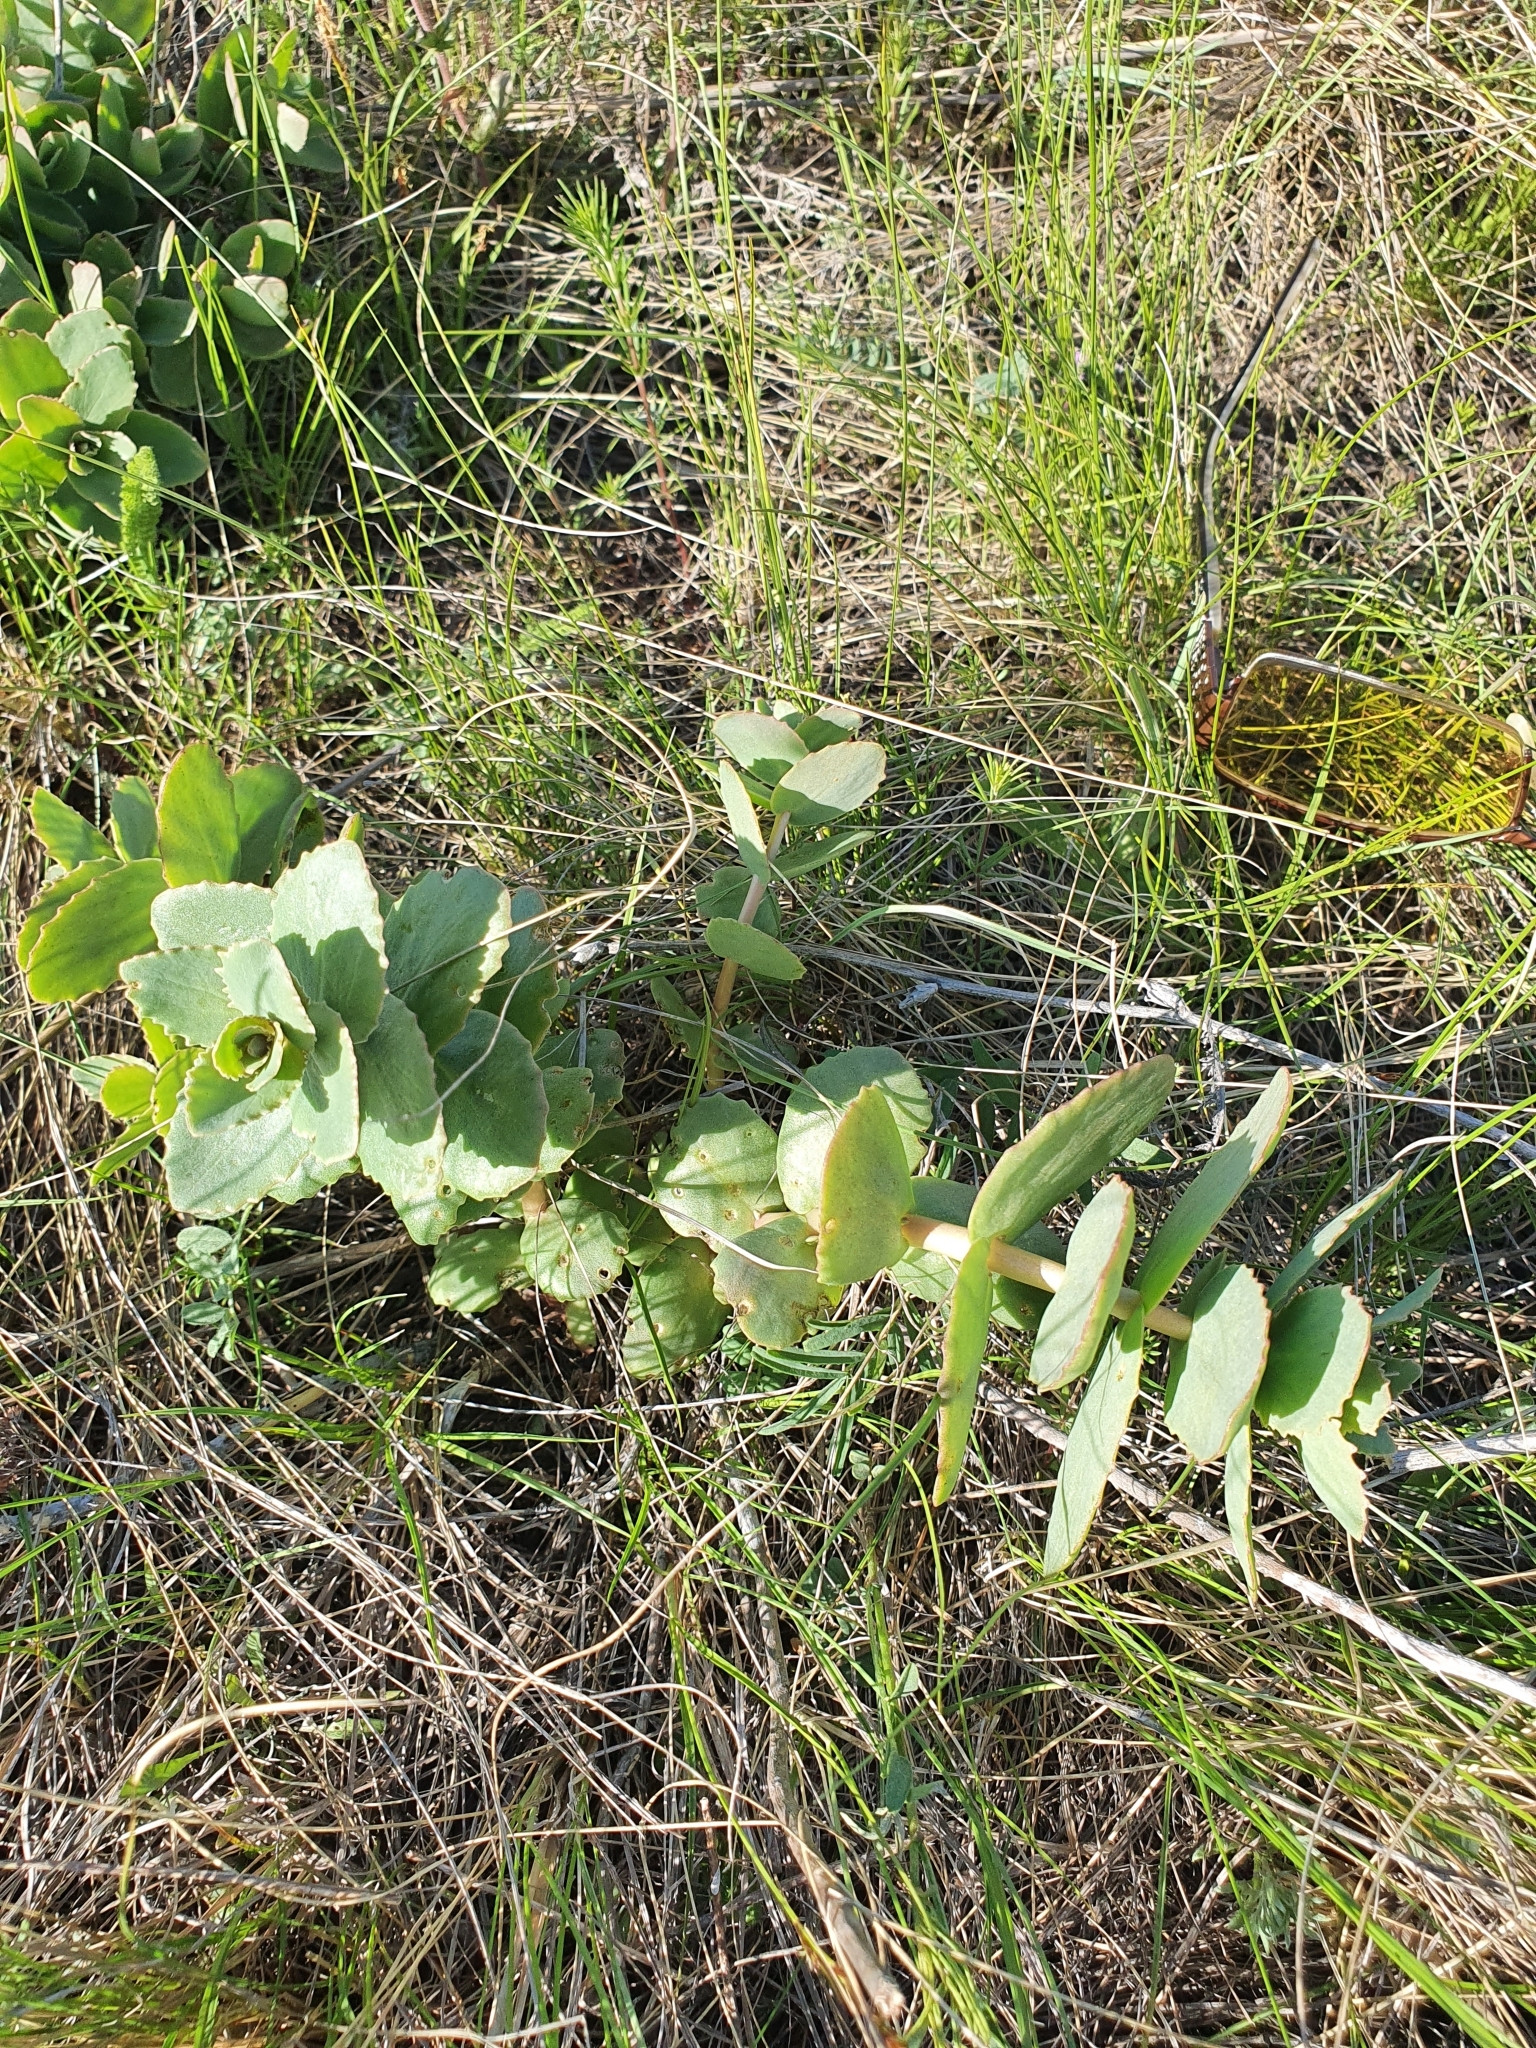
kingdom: Plantae
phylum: Tracheophyta
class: Magnoliopsida
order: Saxifragales
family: Crassulaceae
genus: Hylotelephium
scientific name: Hylotelephium maximum
